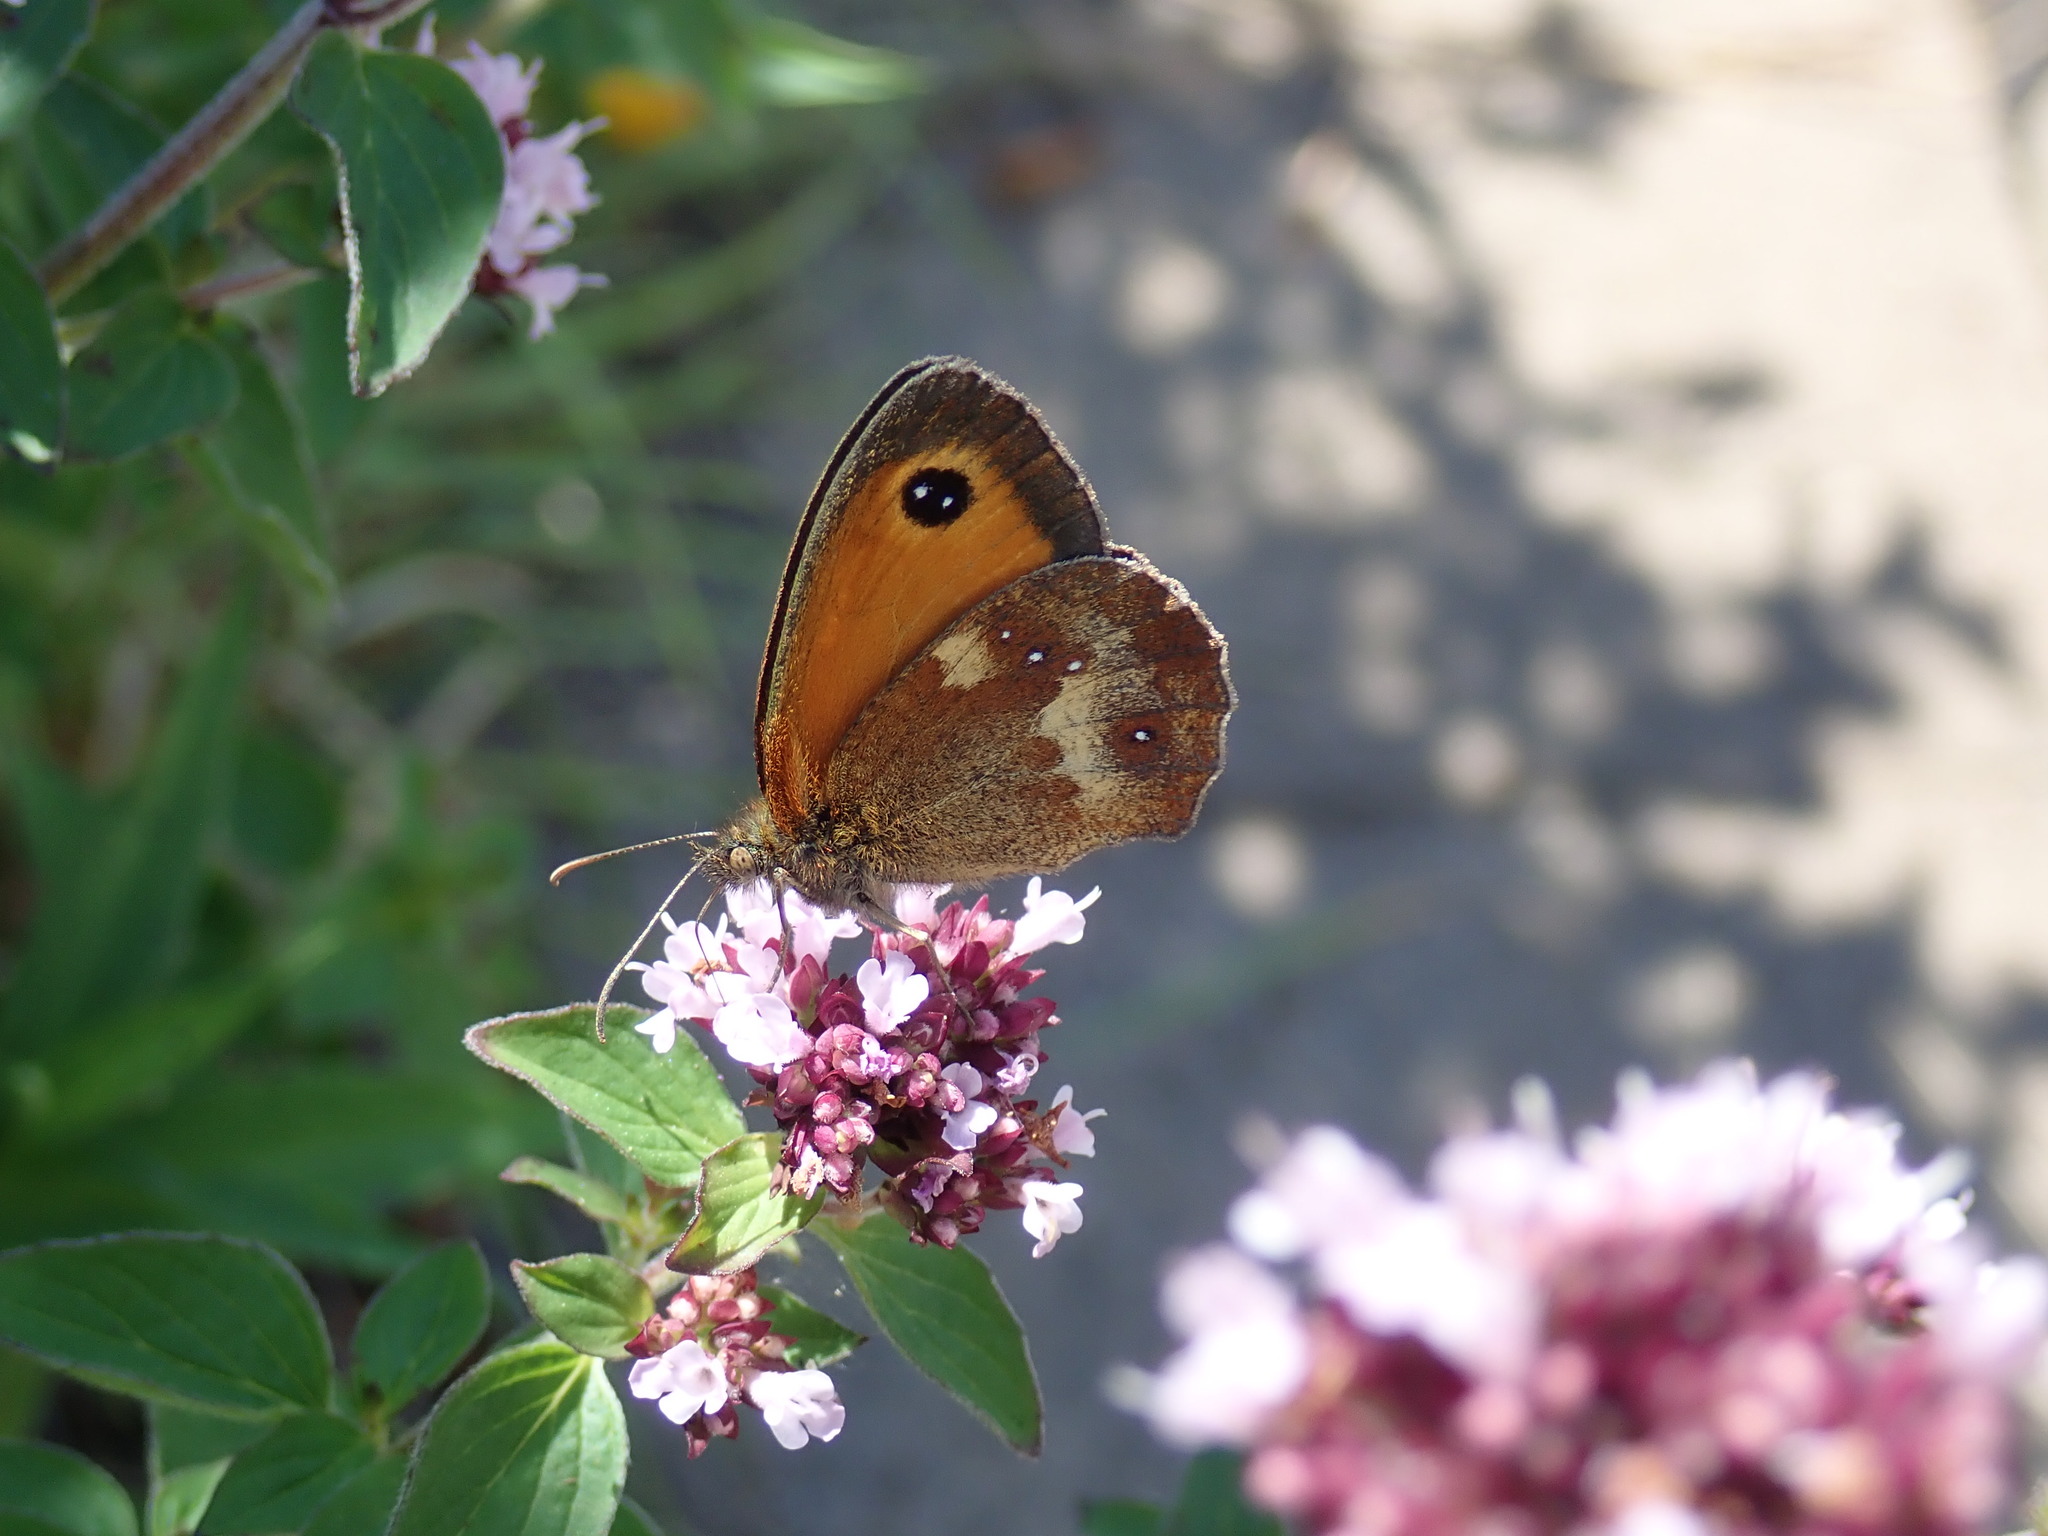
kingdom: Animalia
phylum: Arthropoda
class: Insecta
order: Lepidoptera
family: Nymphalidae
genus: Maniola
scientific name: Maniola jurtina
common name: Meadow brown
